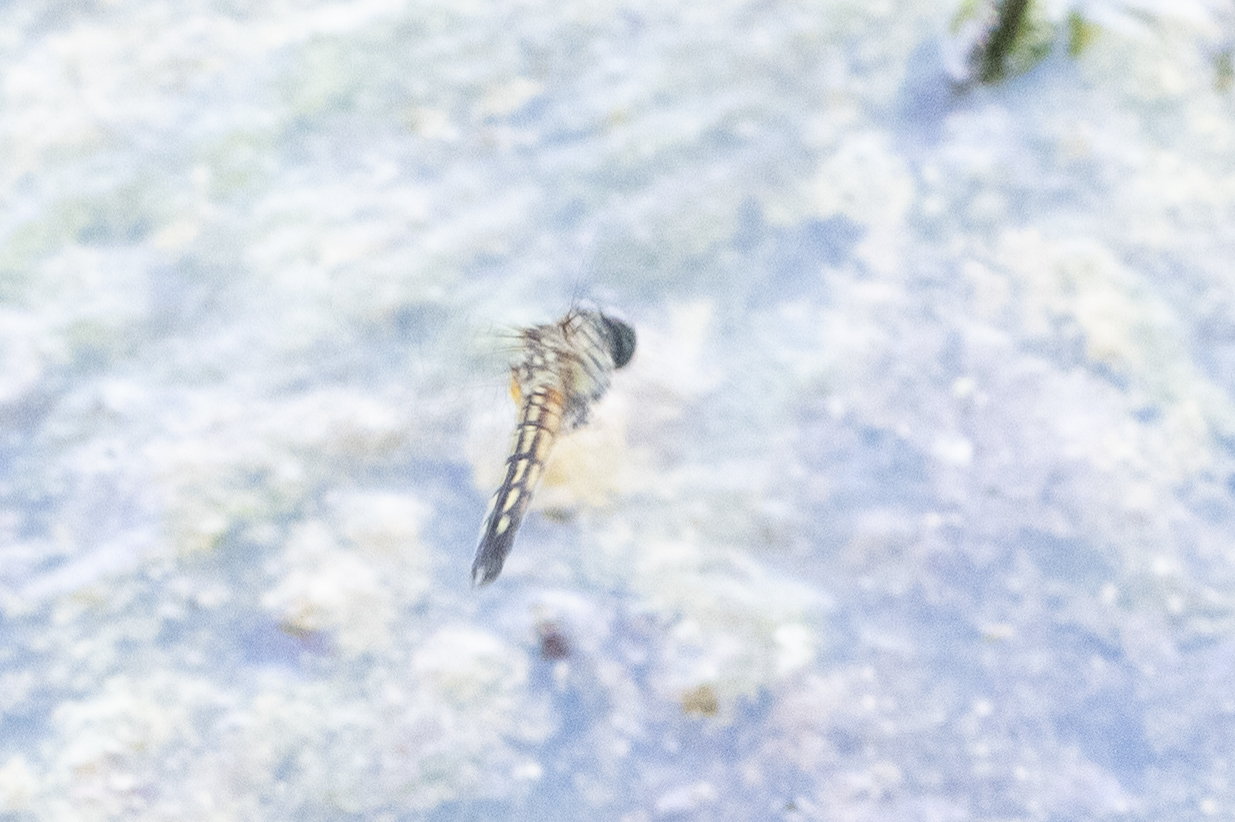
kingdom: Animalia
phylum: Arthropoda
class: Insecta
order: Odonata
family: Libellulidae
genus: Pachydiplax
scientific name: Pachydiplax longipennis
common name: Blue dasher
